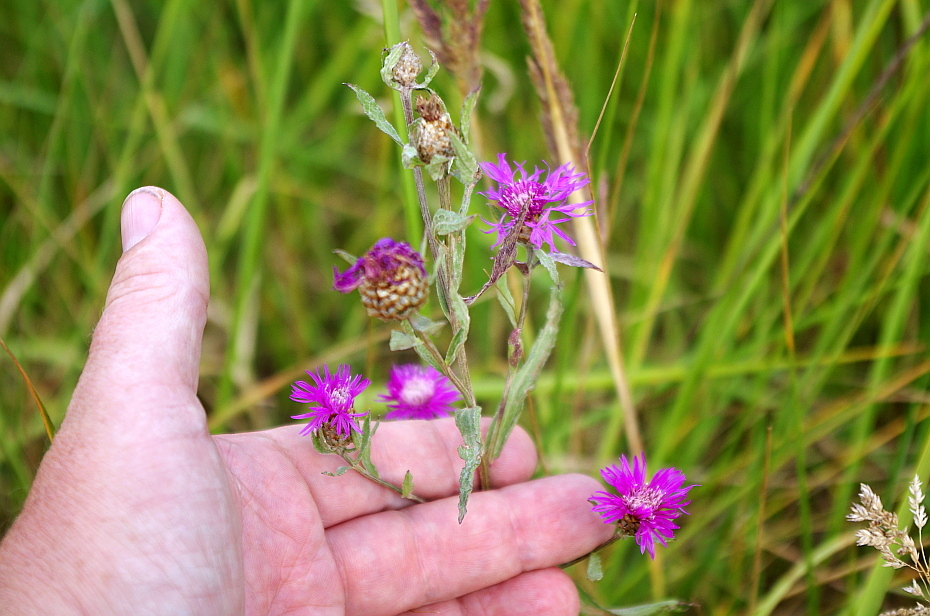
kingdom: Plantae
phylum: Tracheophyta
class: Magnoliopsida
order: Asterales
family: Asteraceae
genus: Centaurea
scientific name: Centaurea jacea
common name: Brown knapweed
